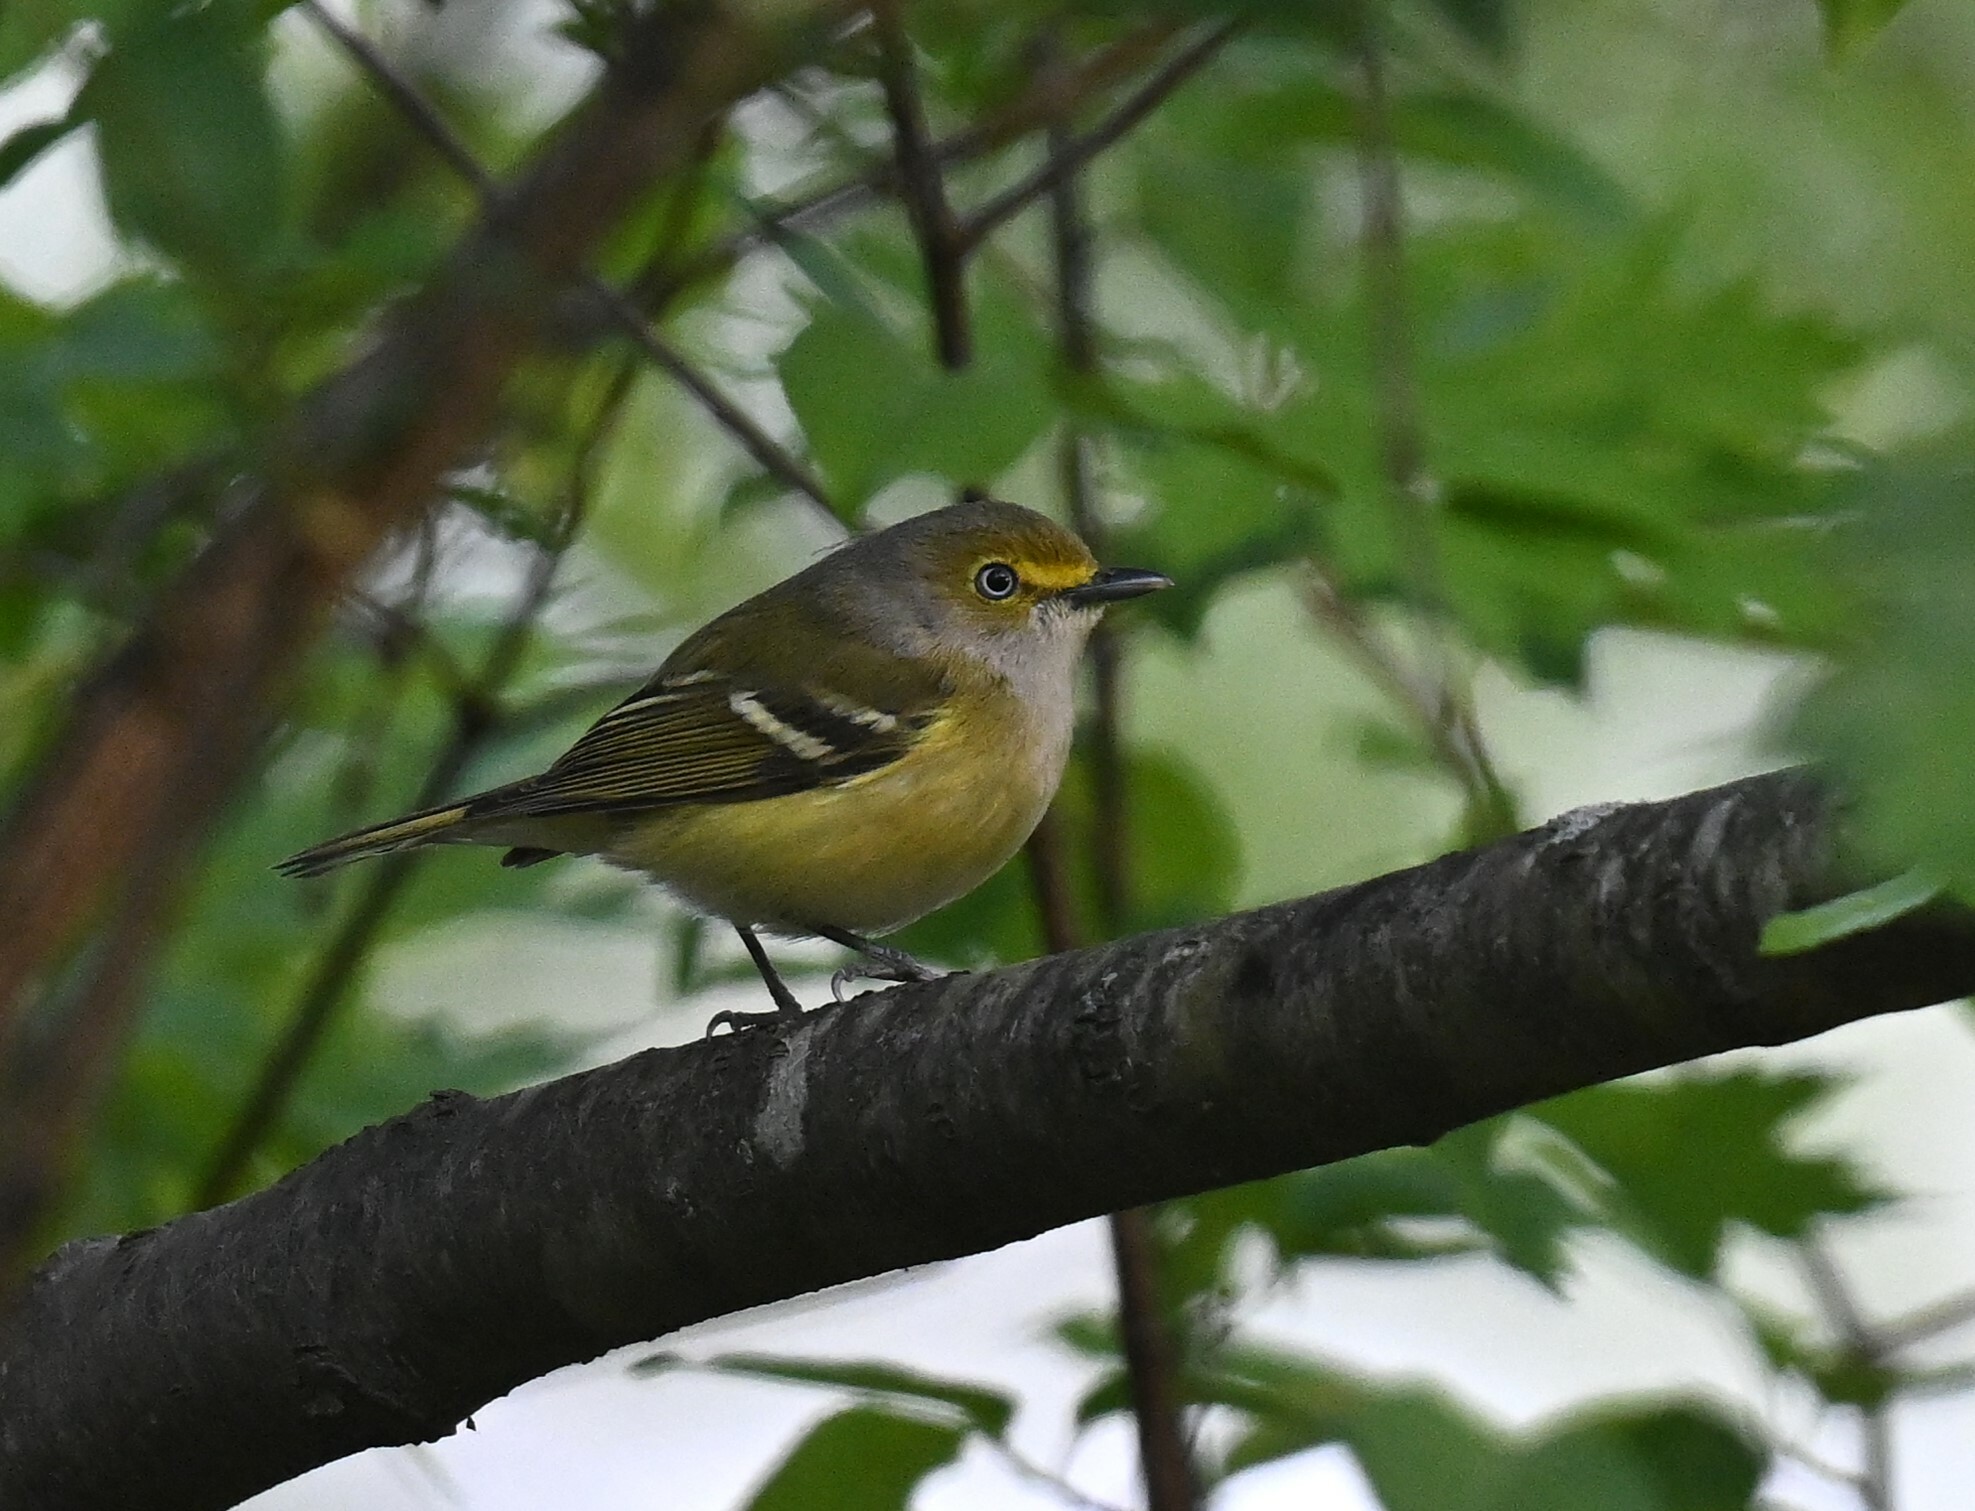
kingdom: Animalia
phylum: Chordata
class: Aves
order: Passeriformes
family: Vireonidae
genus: Vireo
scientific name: Vireo griseus
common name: White-eyed vireo
